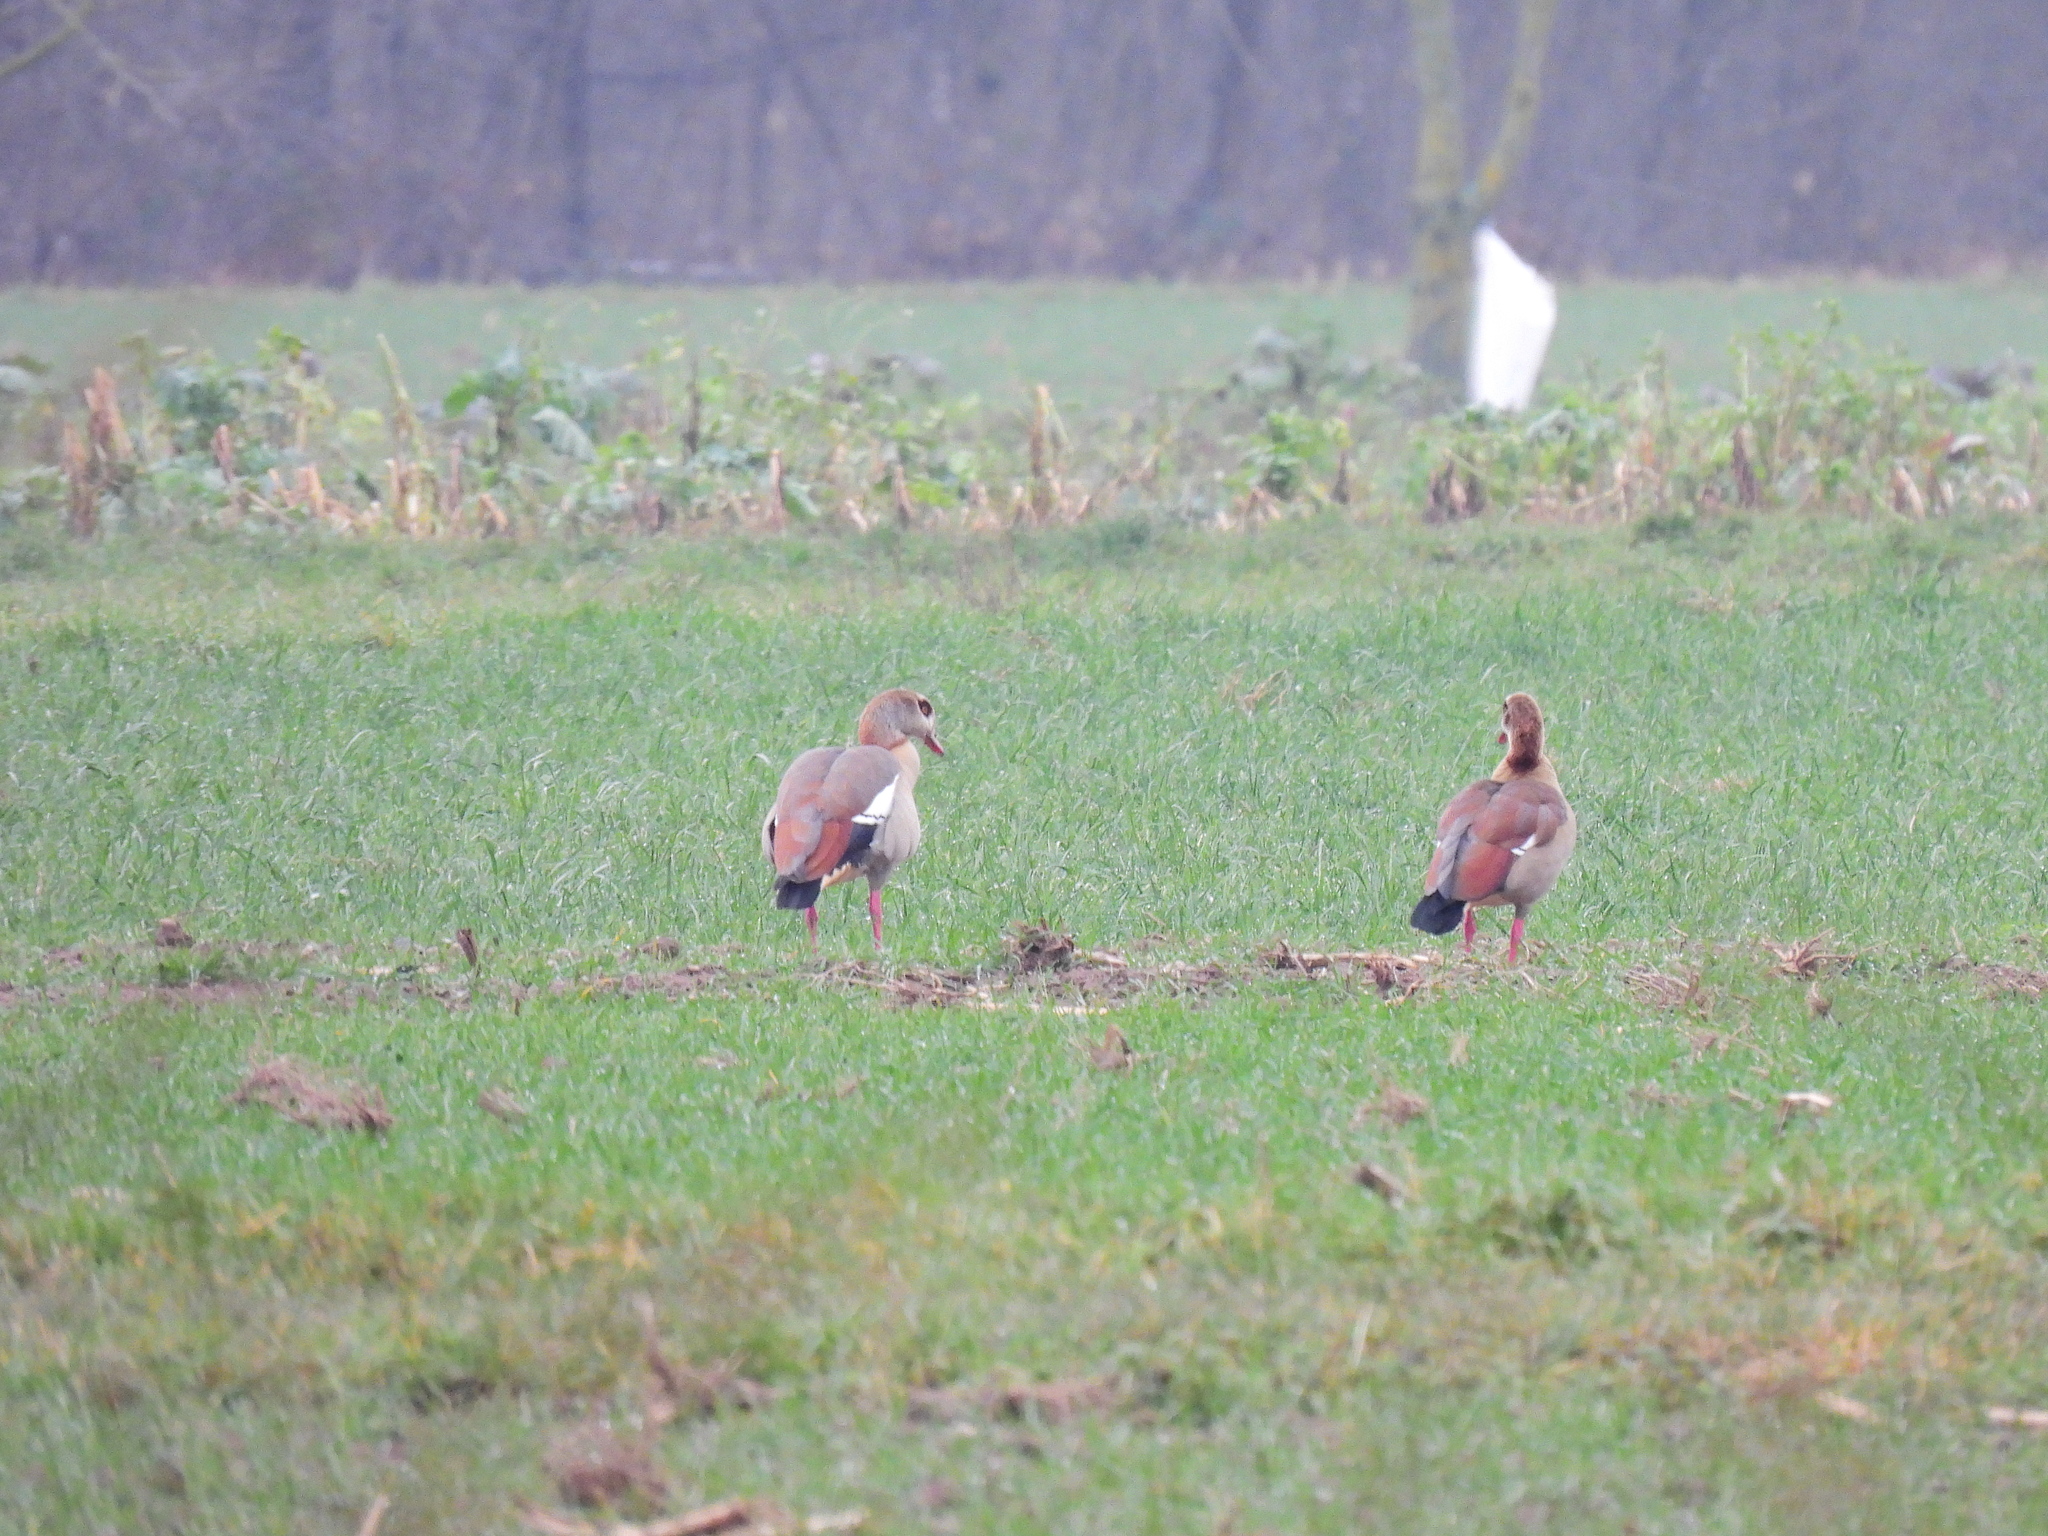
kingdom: Animalia
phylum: Chordata
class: Aves
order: Anseriformes
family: Anatidae
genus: Alopochen
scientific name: Alopochen aegyptiaca
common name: Egyptian goose
